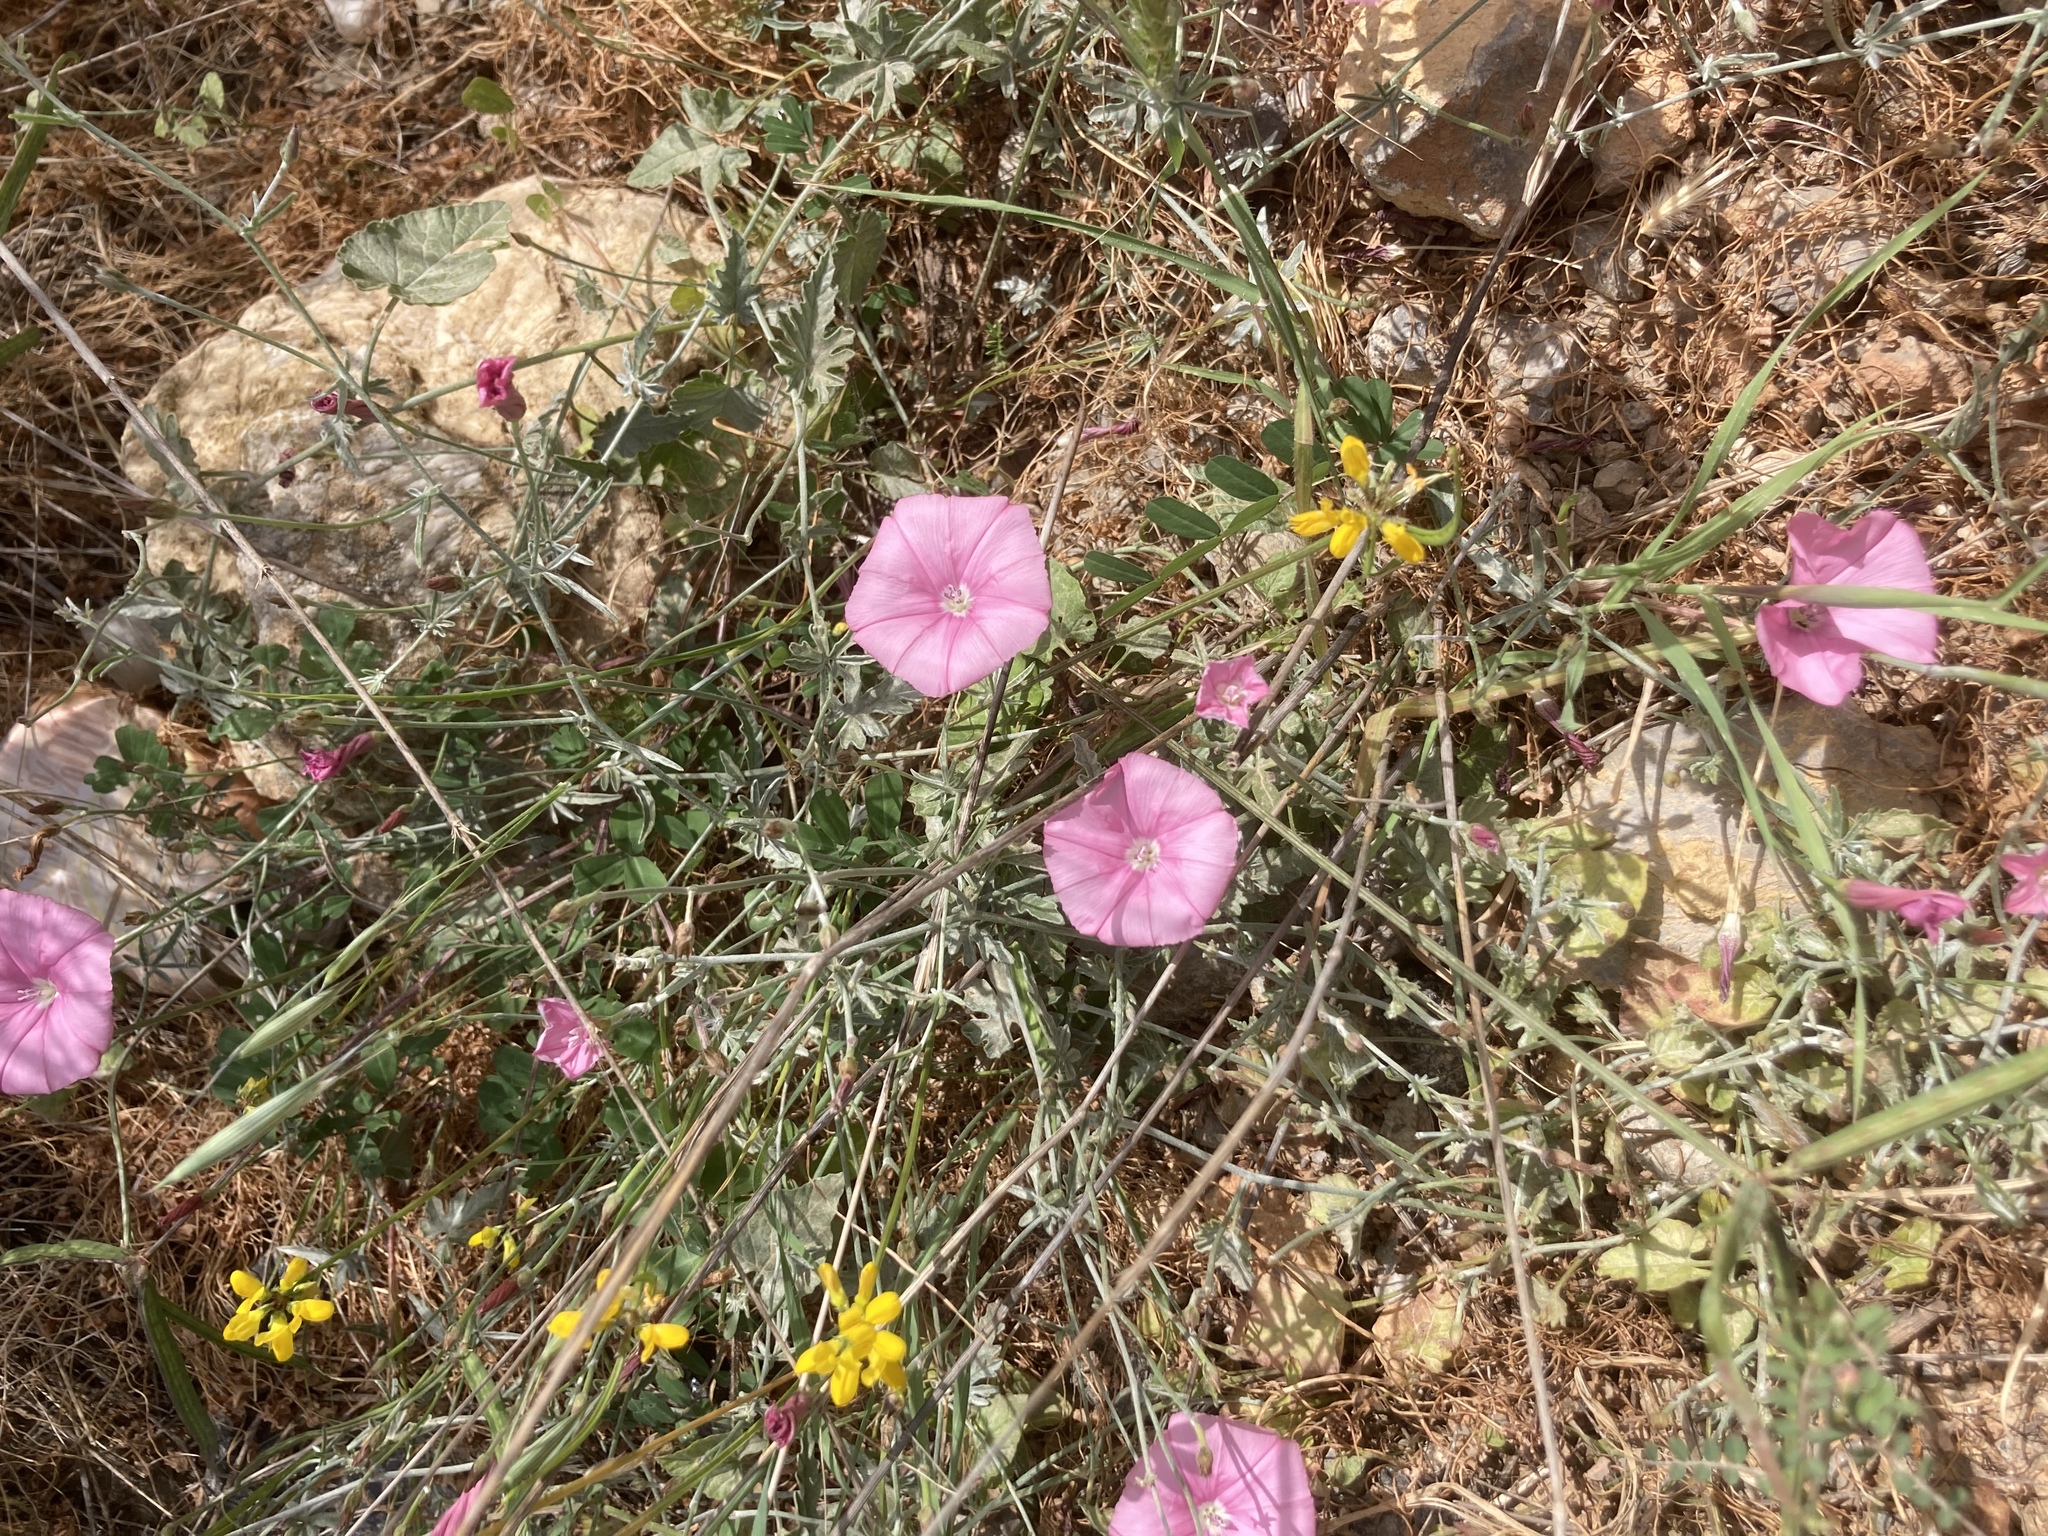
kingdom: Plantae
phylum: Tracheophyta
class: Magnoliopsida
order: Solanales
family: Convolvulaceae
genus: Convolvulus
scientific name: Convolvulus elegantissimus
